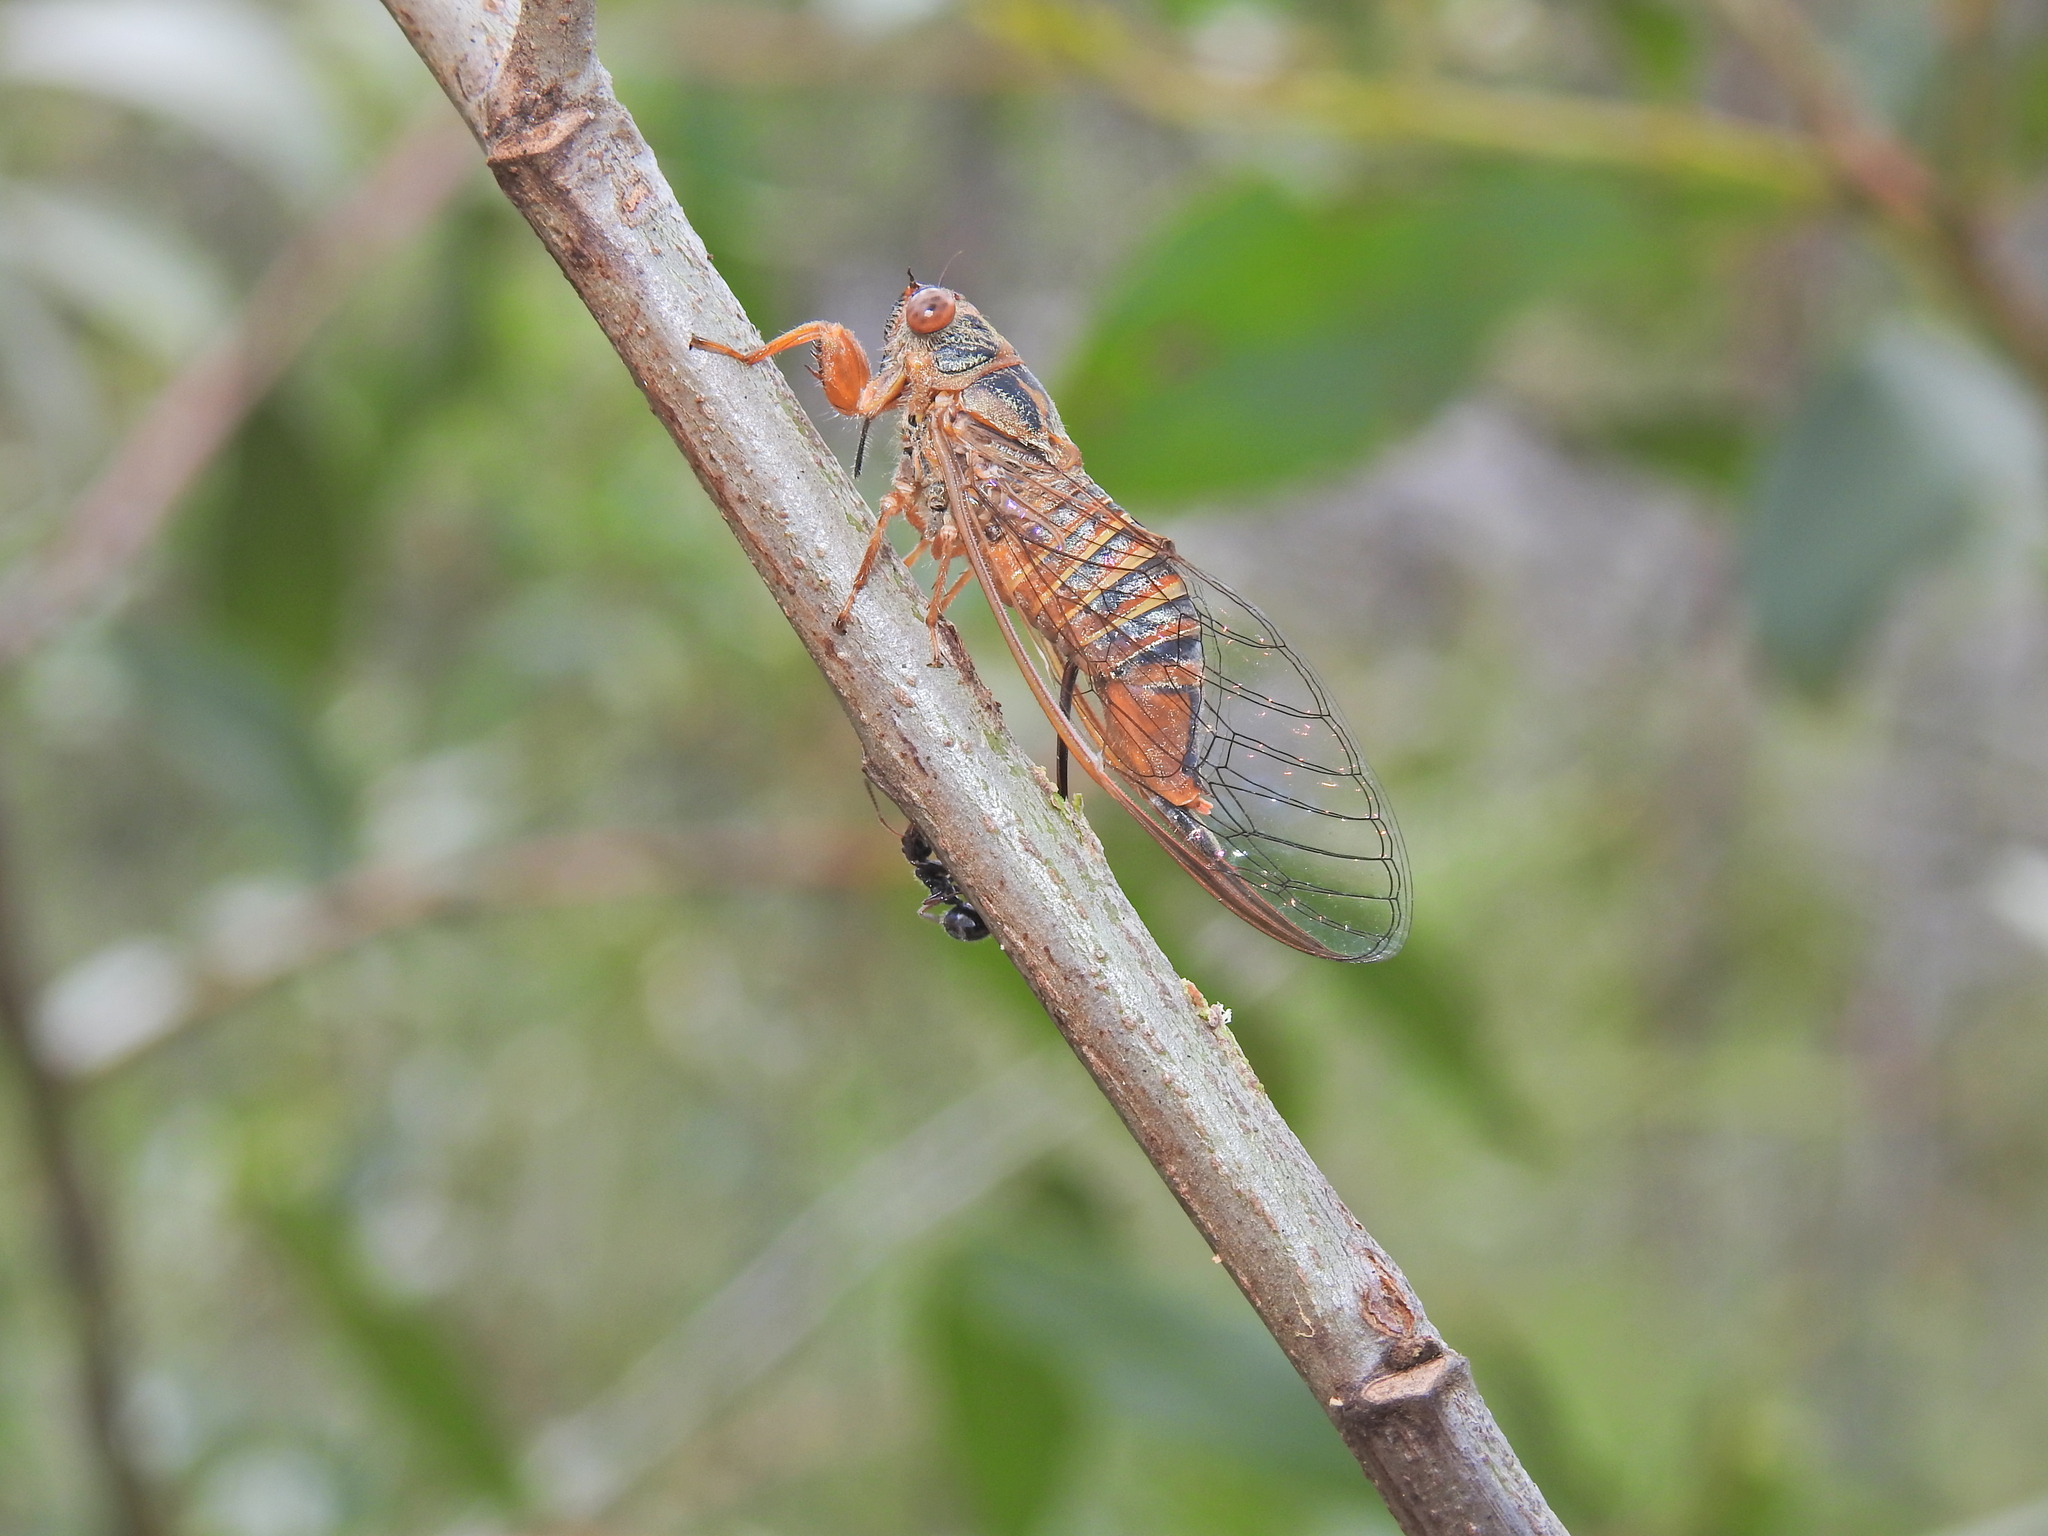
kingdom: Animalia
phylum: Arthropoda
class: Insecta
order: Hemiptera
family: Cicadidae
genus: Palapsalta
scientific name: Palapsalta circumdata
